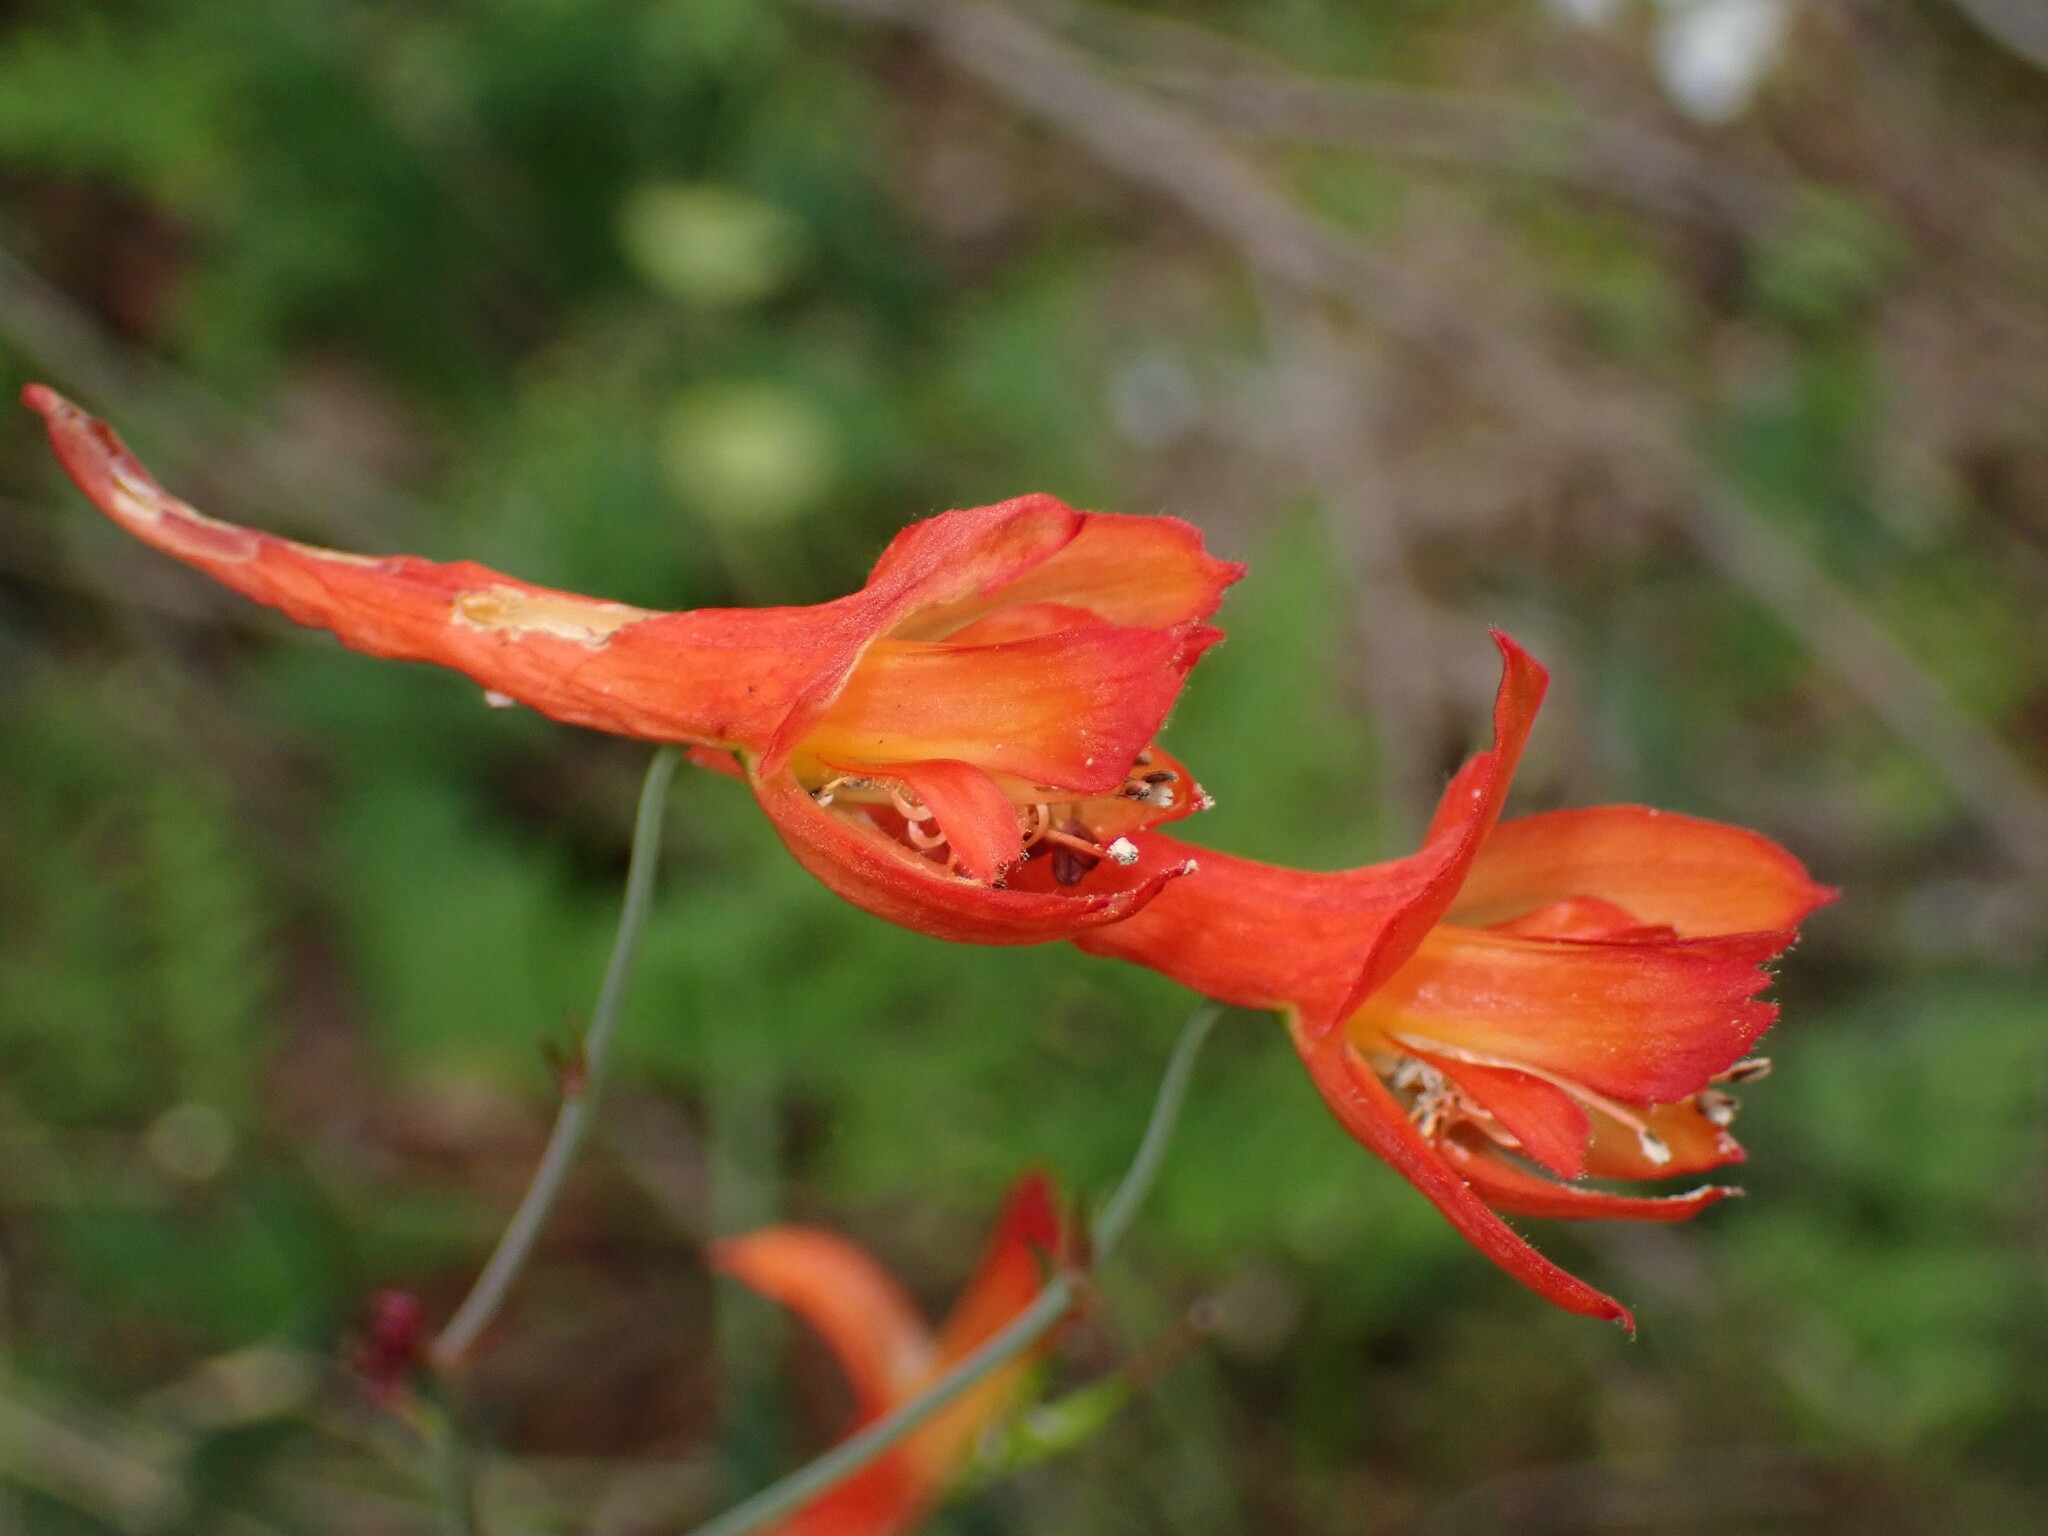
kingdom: Plantae
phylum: Tracheophyta
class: Magnoliopsida
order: Ranunculales
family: Ranunculaceae
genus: Delphinium
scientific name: Delphinium nudicaule
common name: Red larkspur
